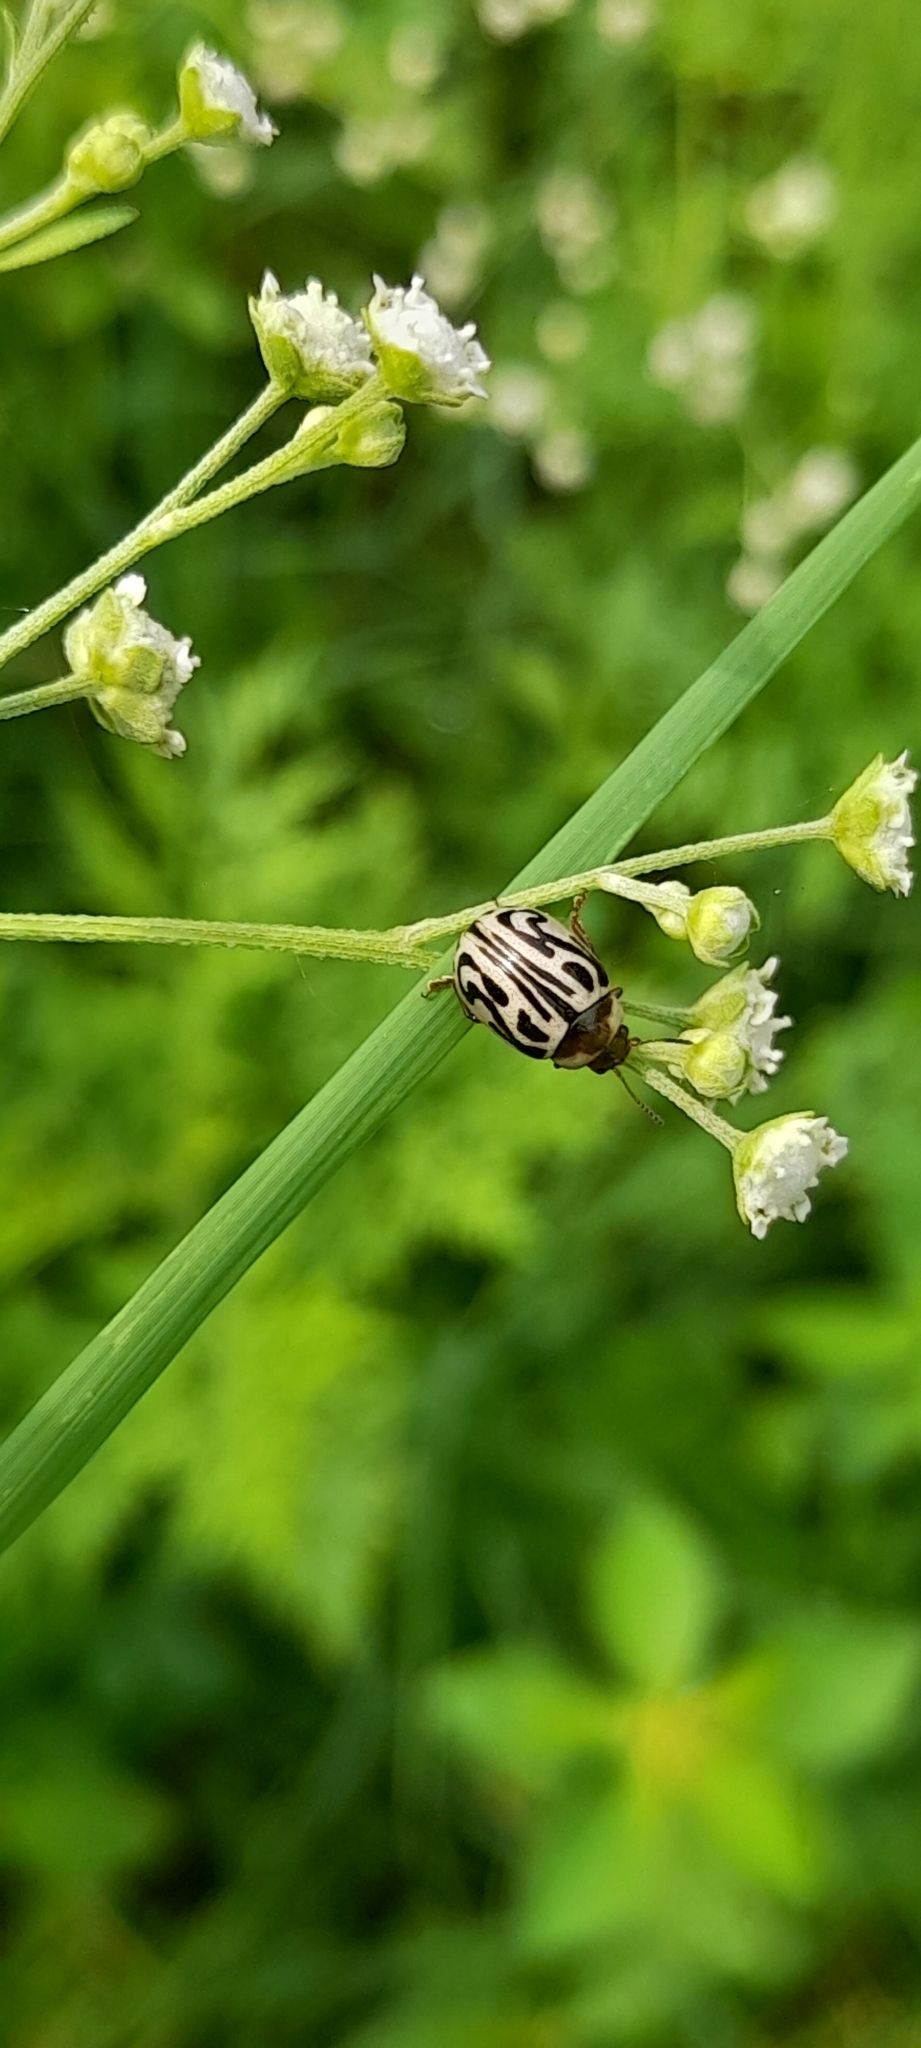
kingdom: Animalia
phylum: Arthropoda
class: Insecta
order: Coleoptera
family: Chrysomelidae
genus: Calligrapha
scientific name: Calligrapha
